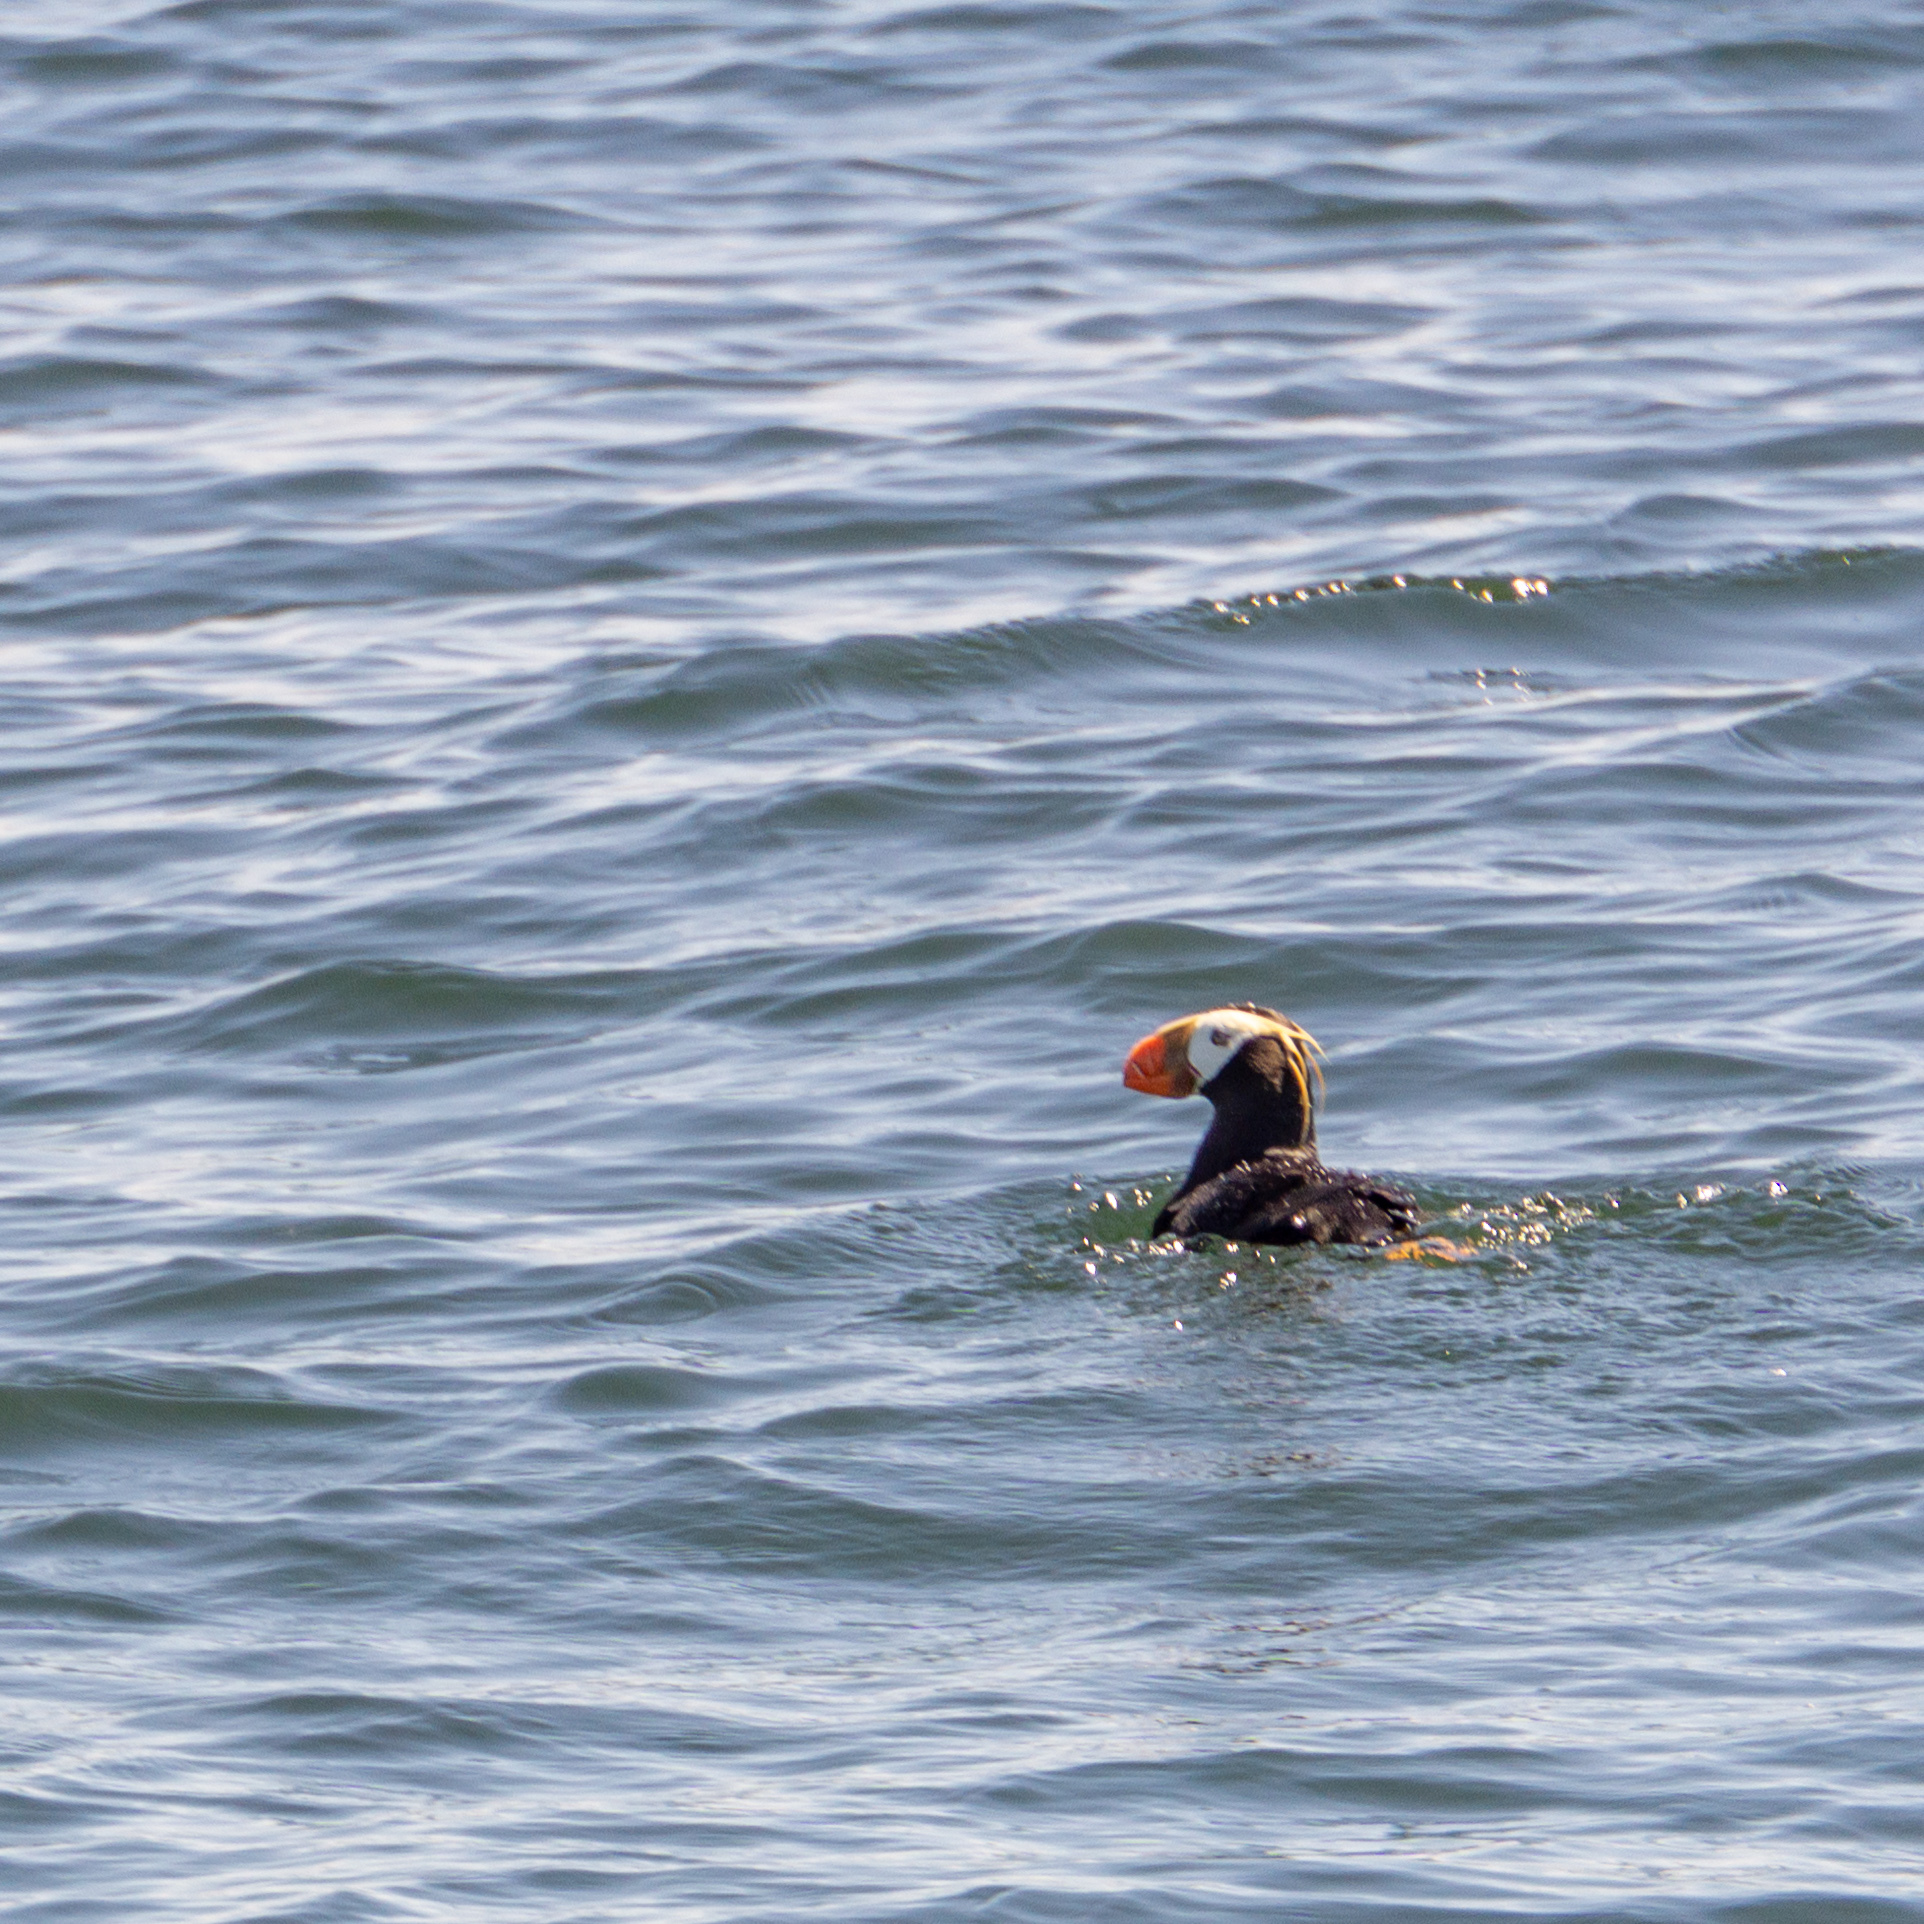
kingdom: Animalia
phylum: Chordata
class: Aves
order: Charadriiformes
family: Alcidae
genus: Fratercula
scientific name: Fratercula cirrhata
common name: Tufted puffin
